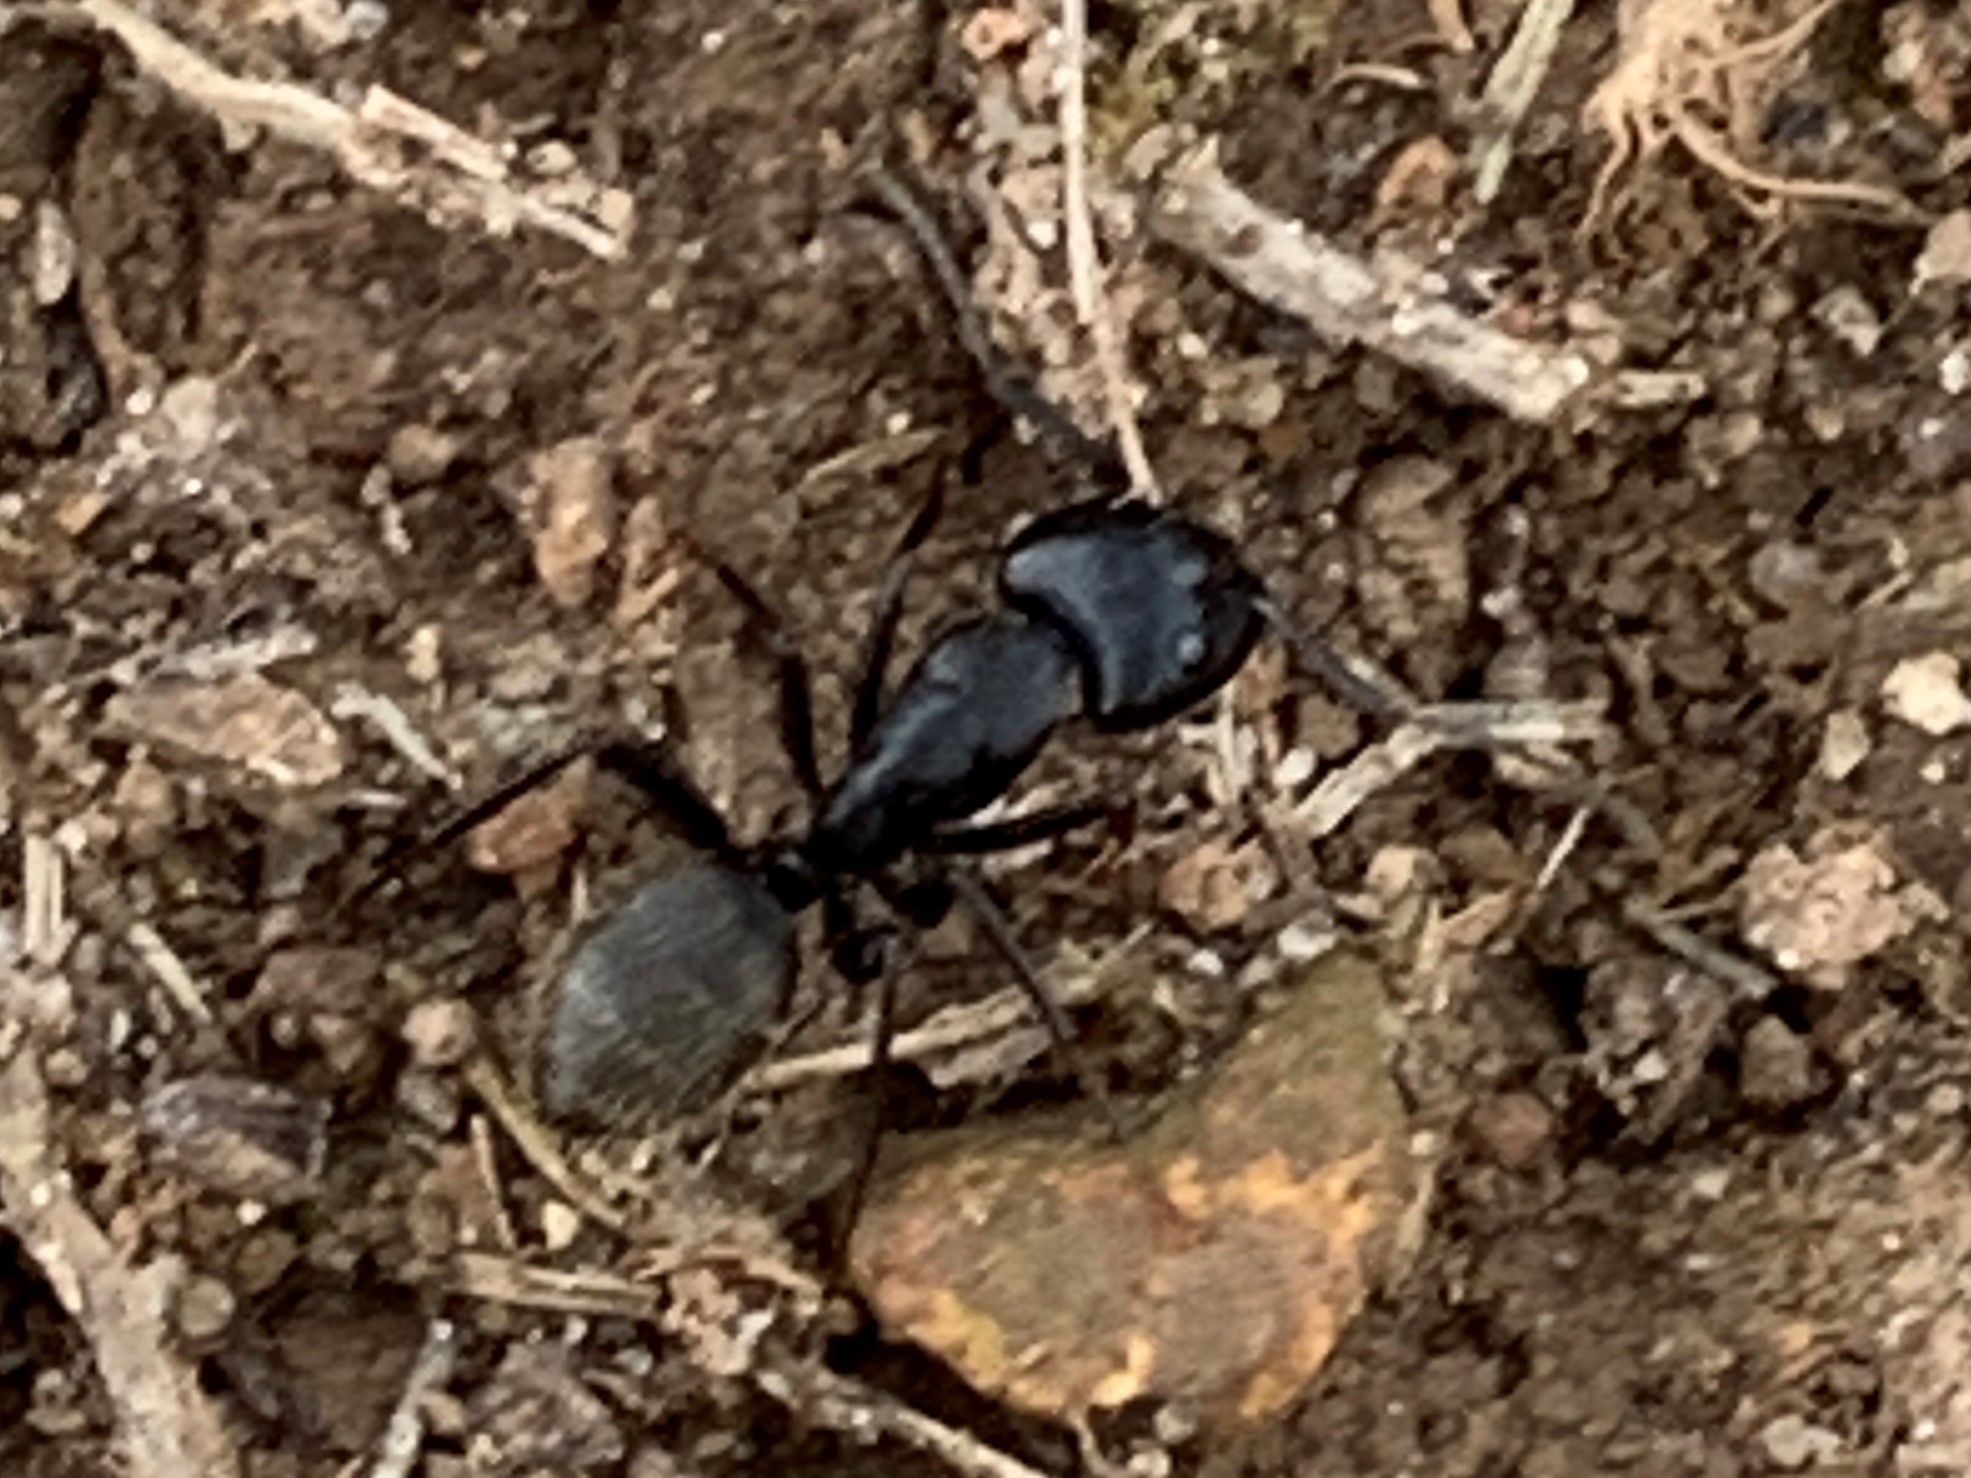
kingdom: Animalia
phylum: Arthropoda
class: Insecta
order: Hymenoptera
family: Formicidae
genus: Camponotus
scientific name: Camponotus pennsylvanicus
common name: Black carpenter ant
